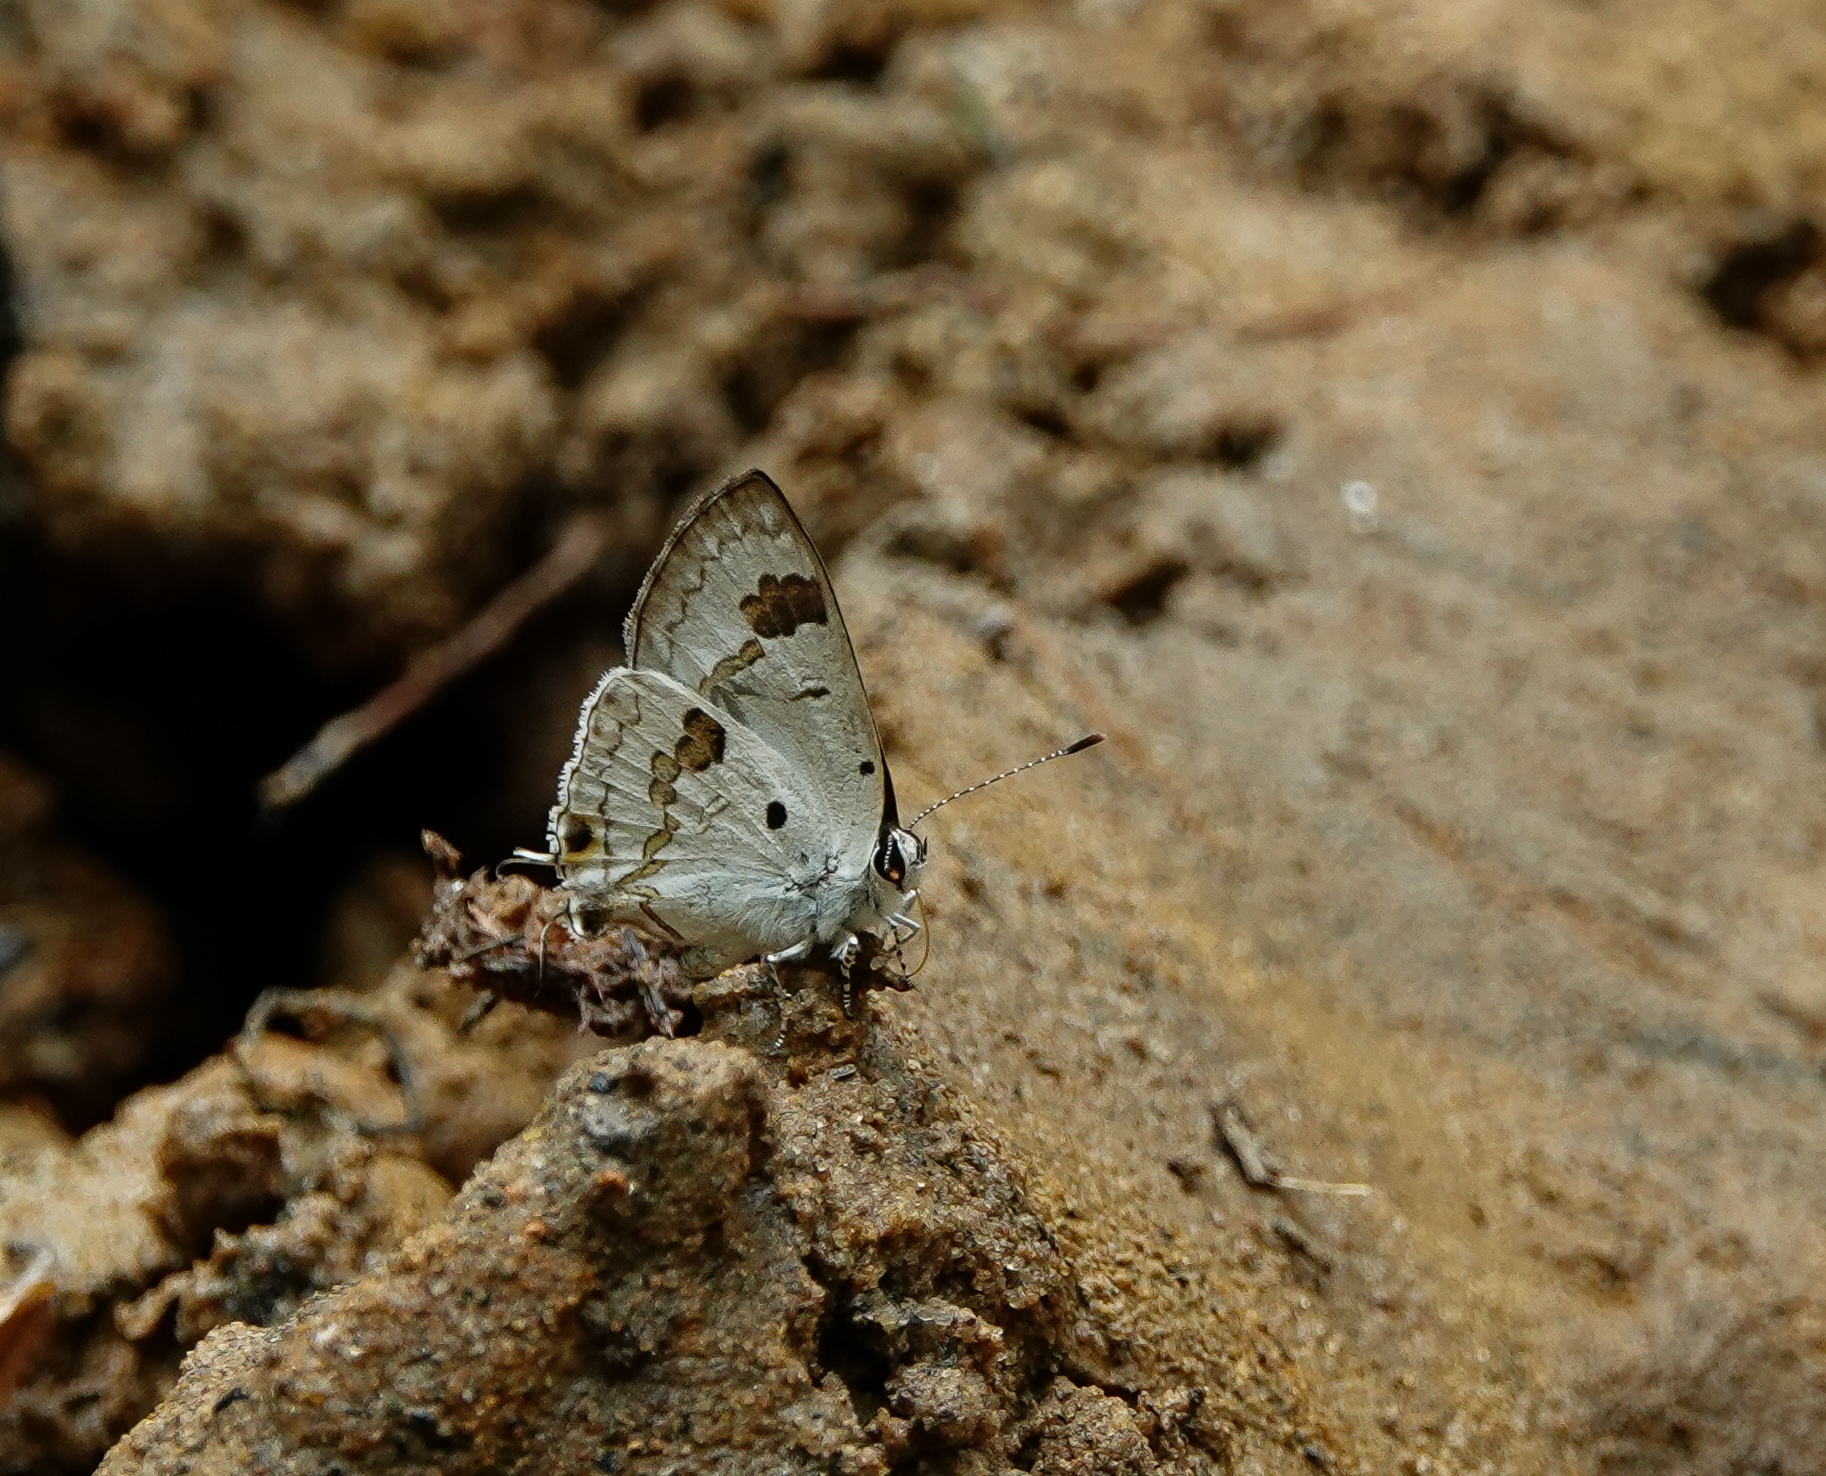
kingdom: Animalia
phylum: Arthropoda
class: Insecta
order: Lepidoptera
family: Lycaenidae
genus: Chliaria
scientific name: Chliaria othona
